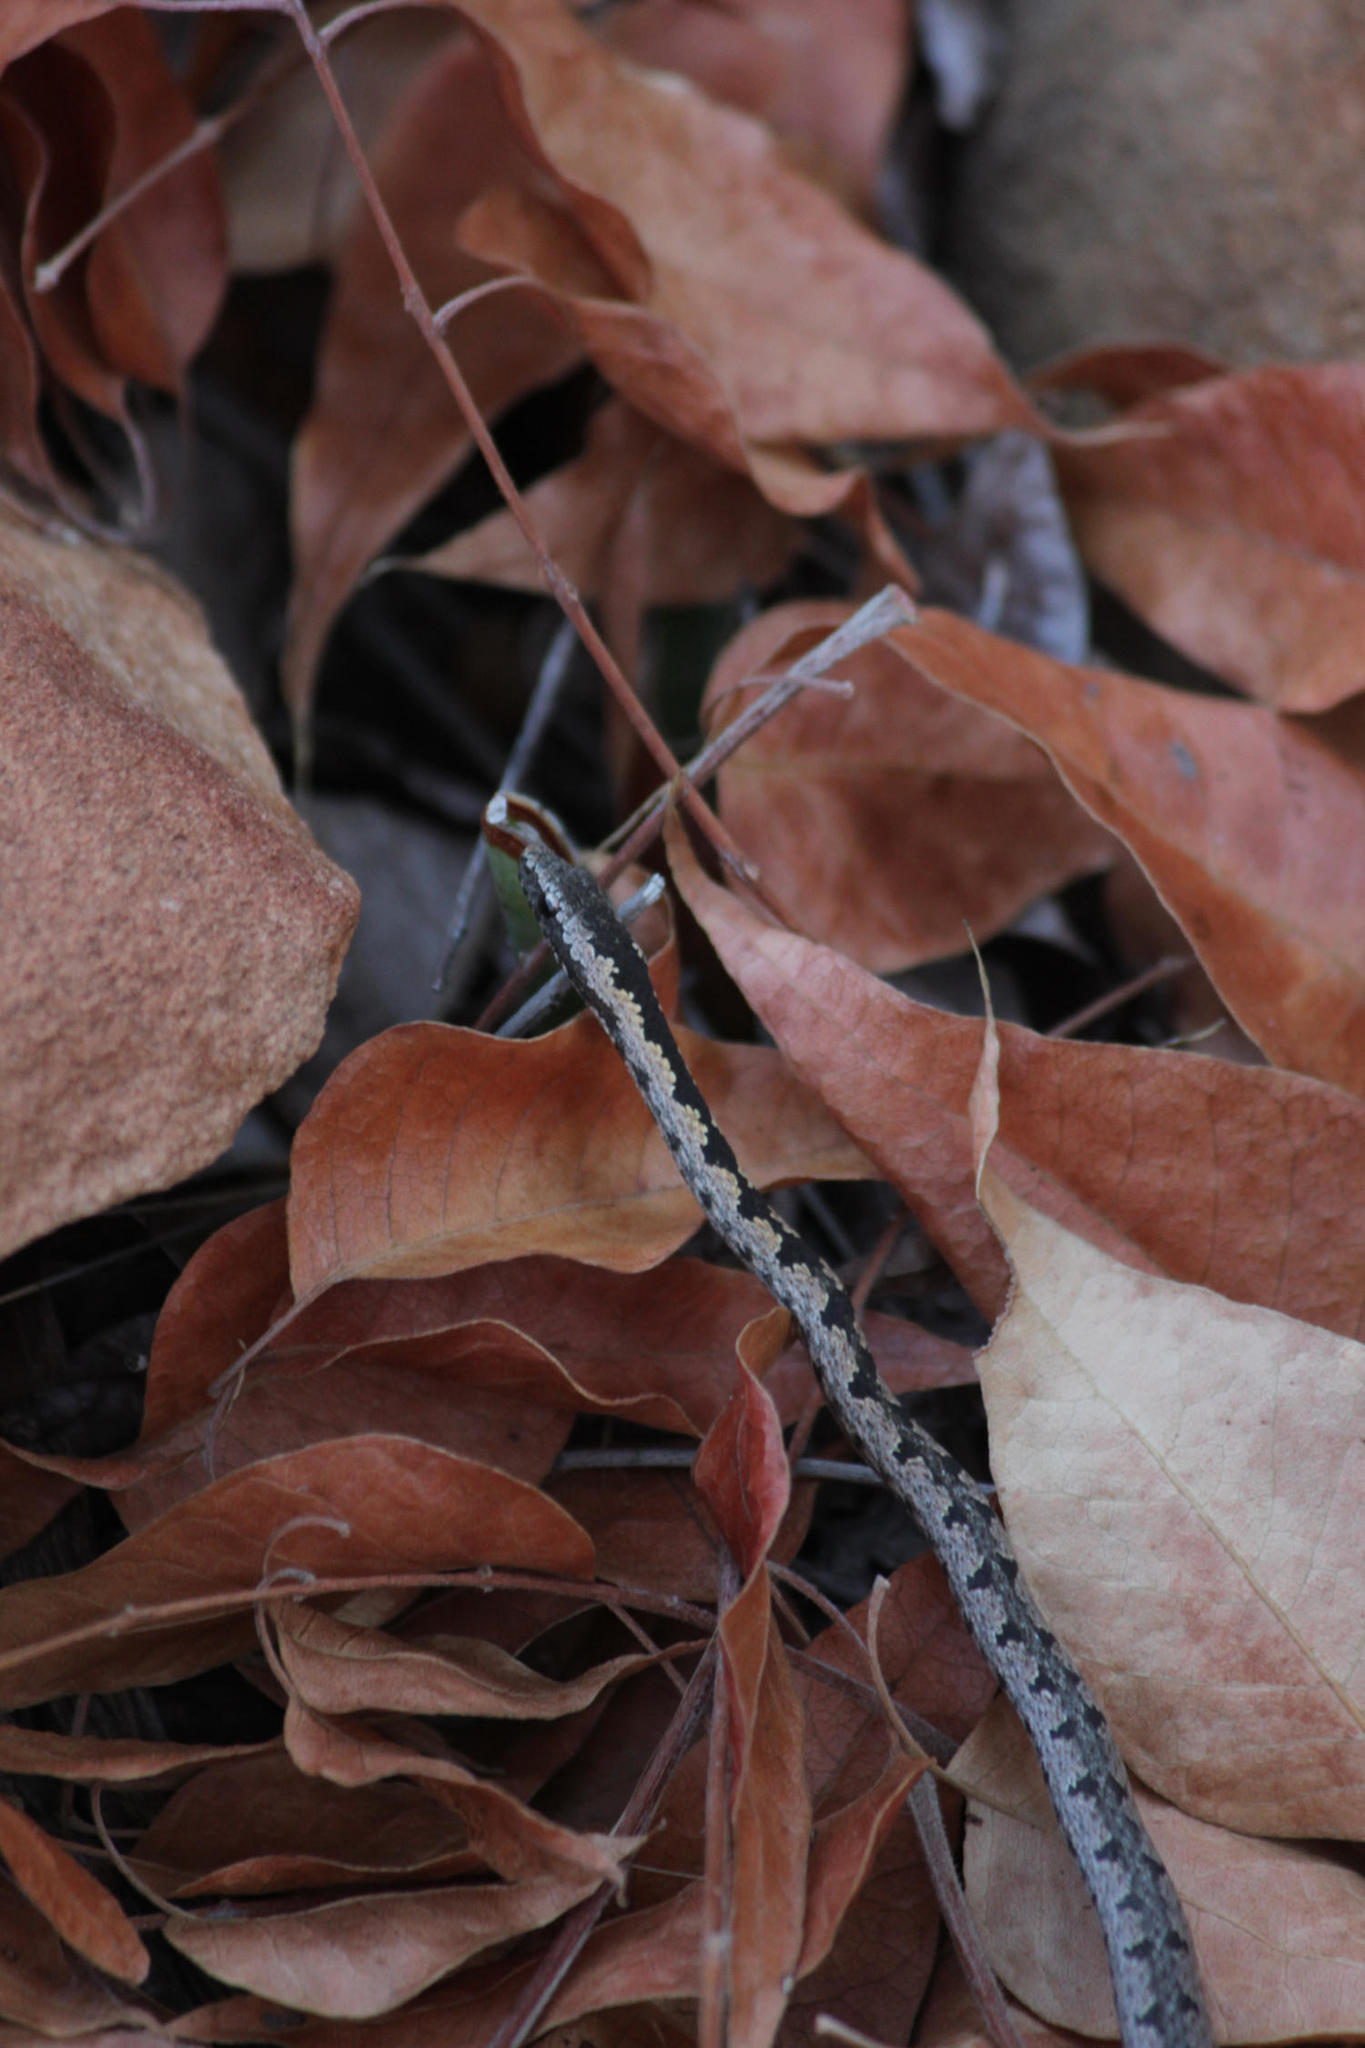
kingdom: Animalia
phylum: Chordata
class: Squamata
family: Psammophiidae
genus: Hemirhagerrhis
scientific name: Hemirhagerrhis nototaenia
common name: Mopane snake
